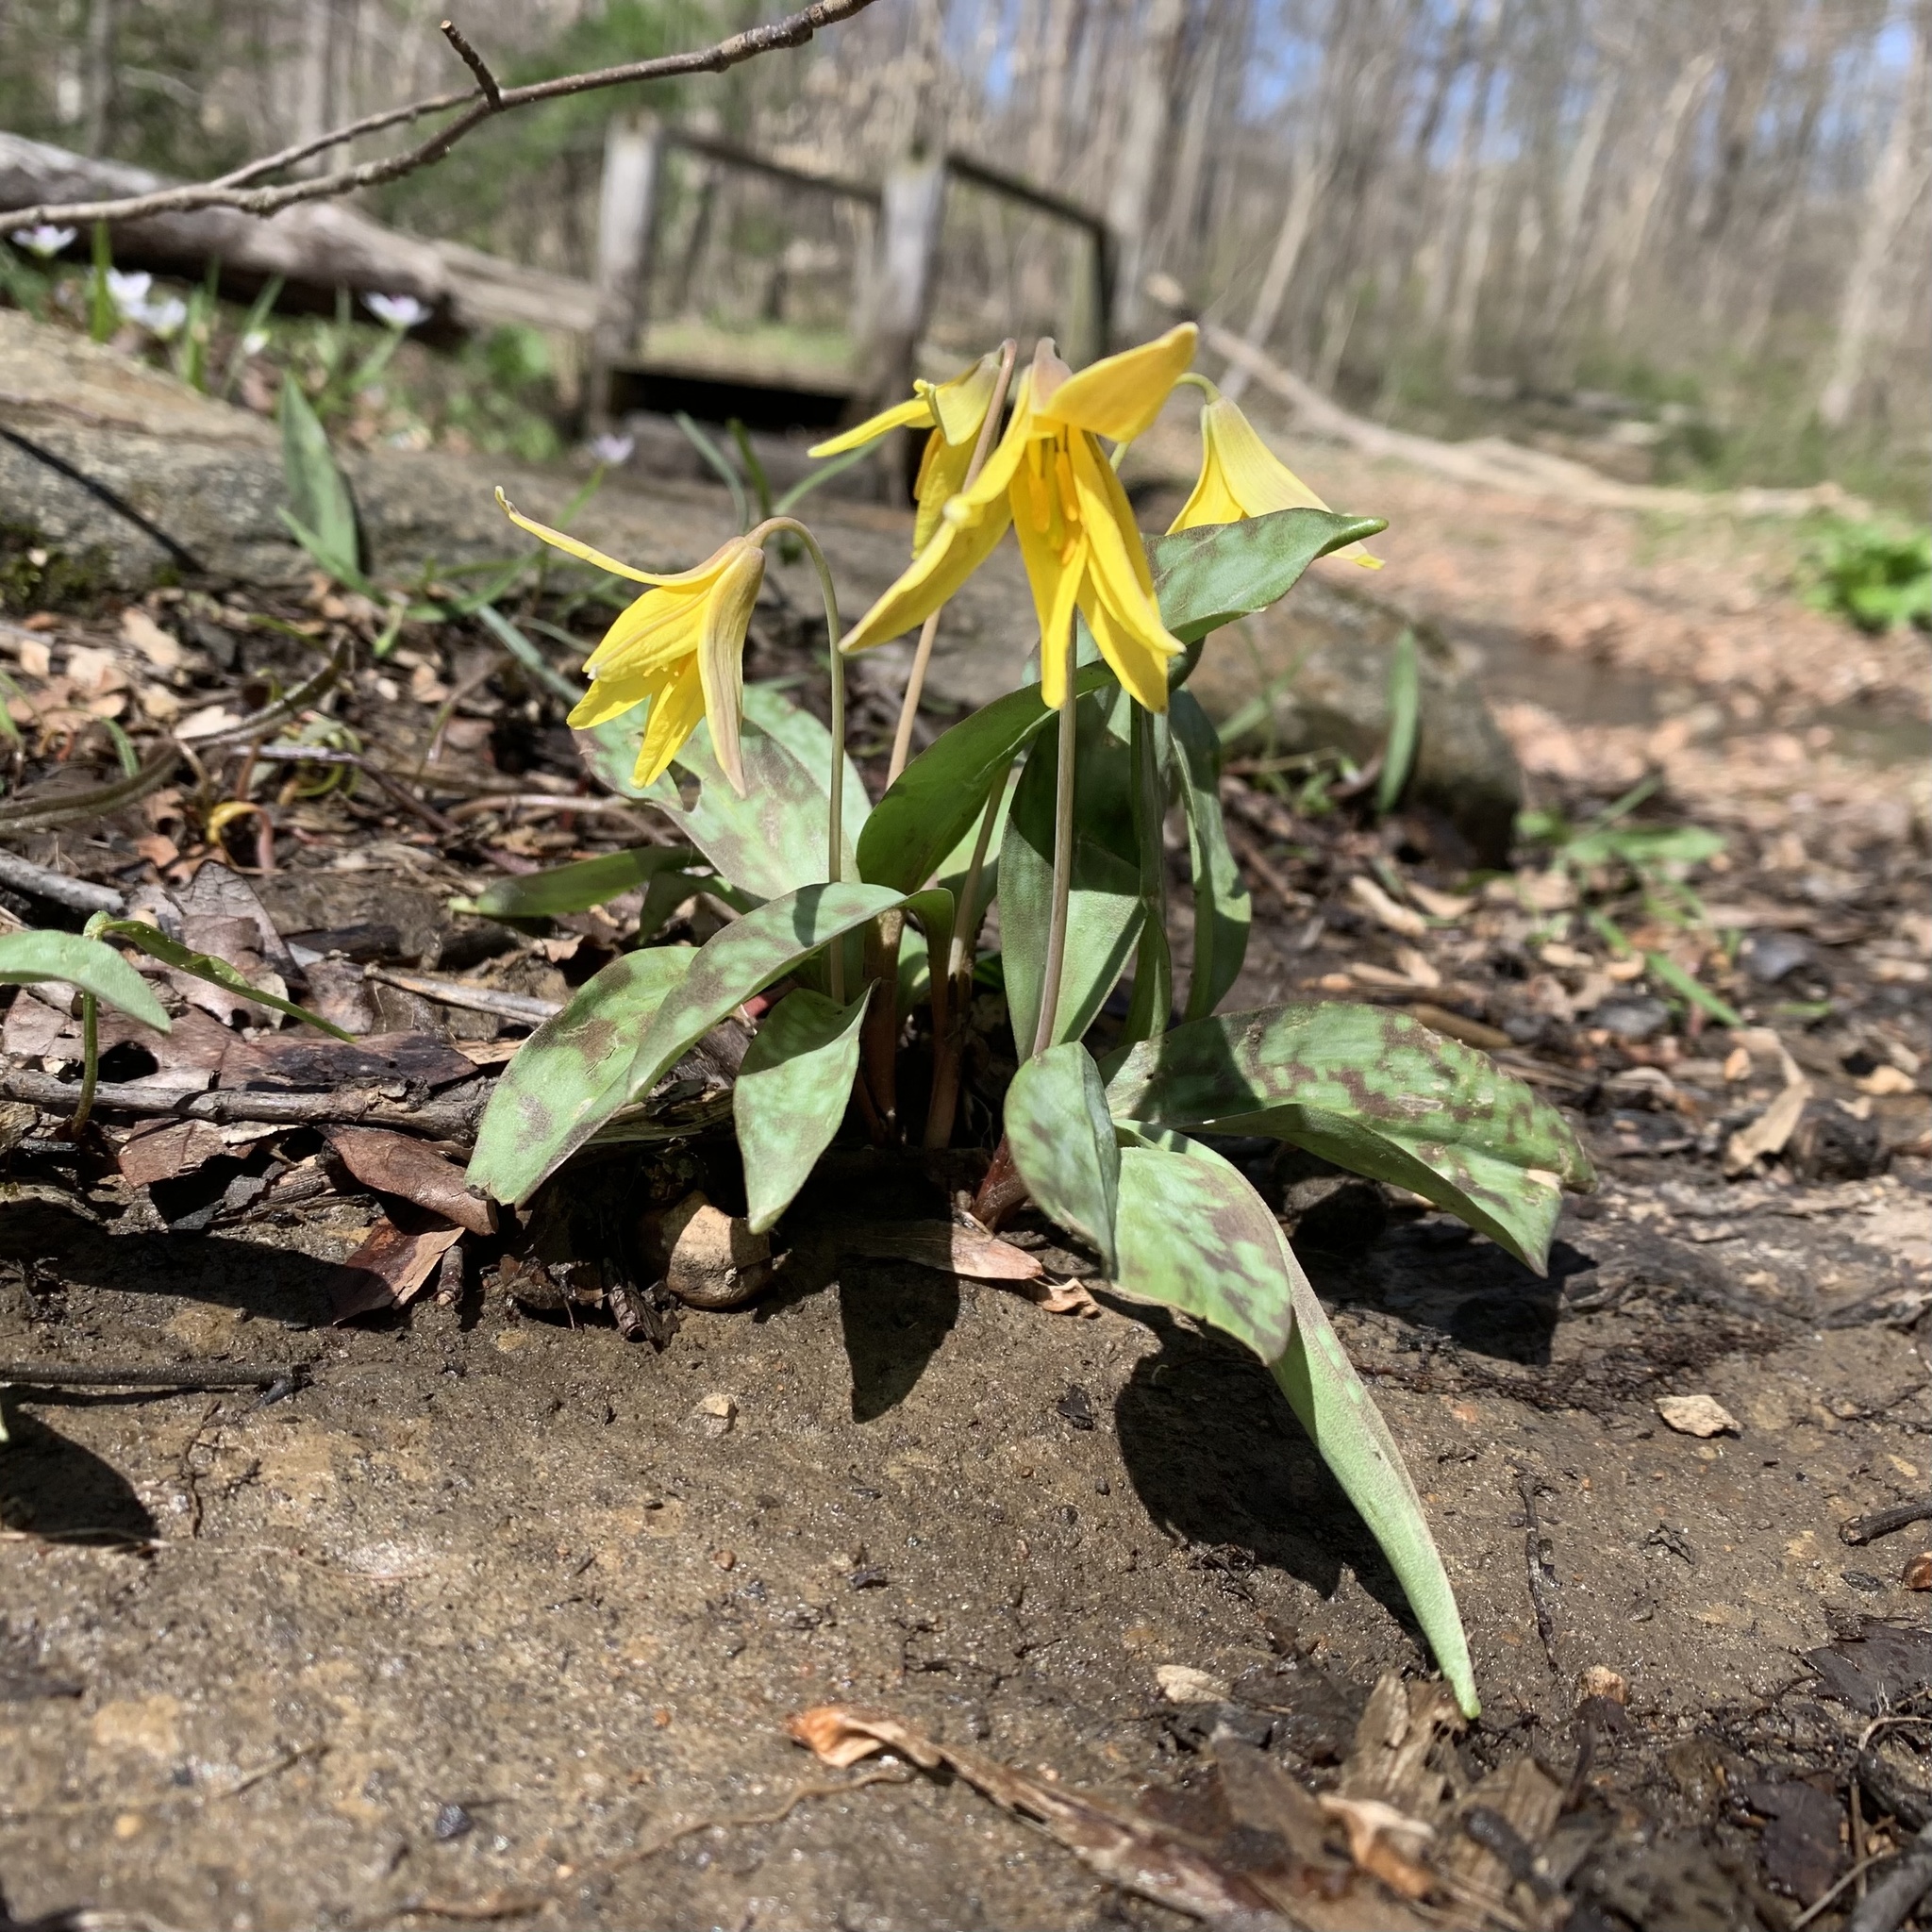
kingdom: Plantae
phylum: Tracheophyta
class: Liliopsida
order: Liliales
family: Liliaceae
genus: Erythronium
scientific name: Erythronium americanum
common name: Yellow adder's-tongue
